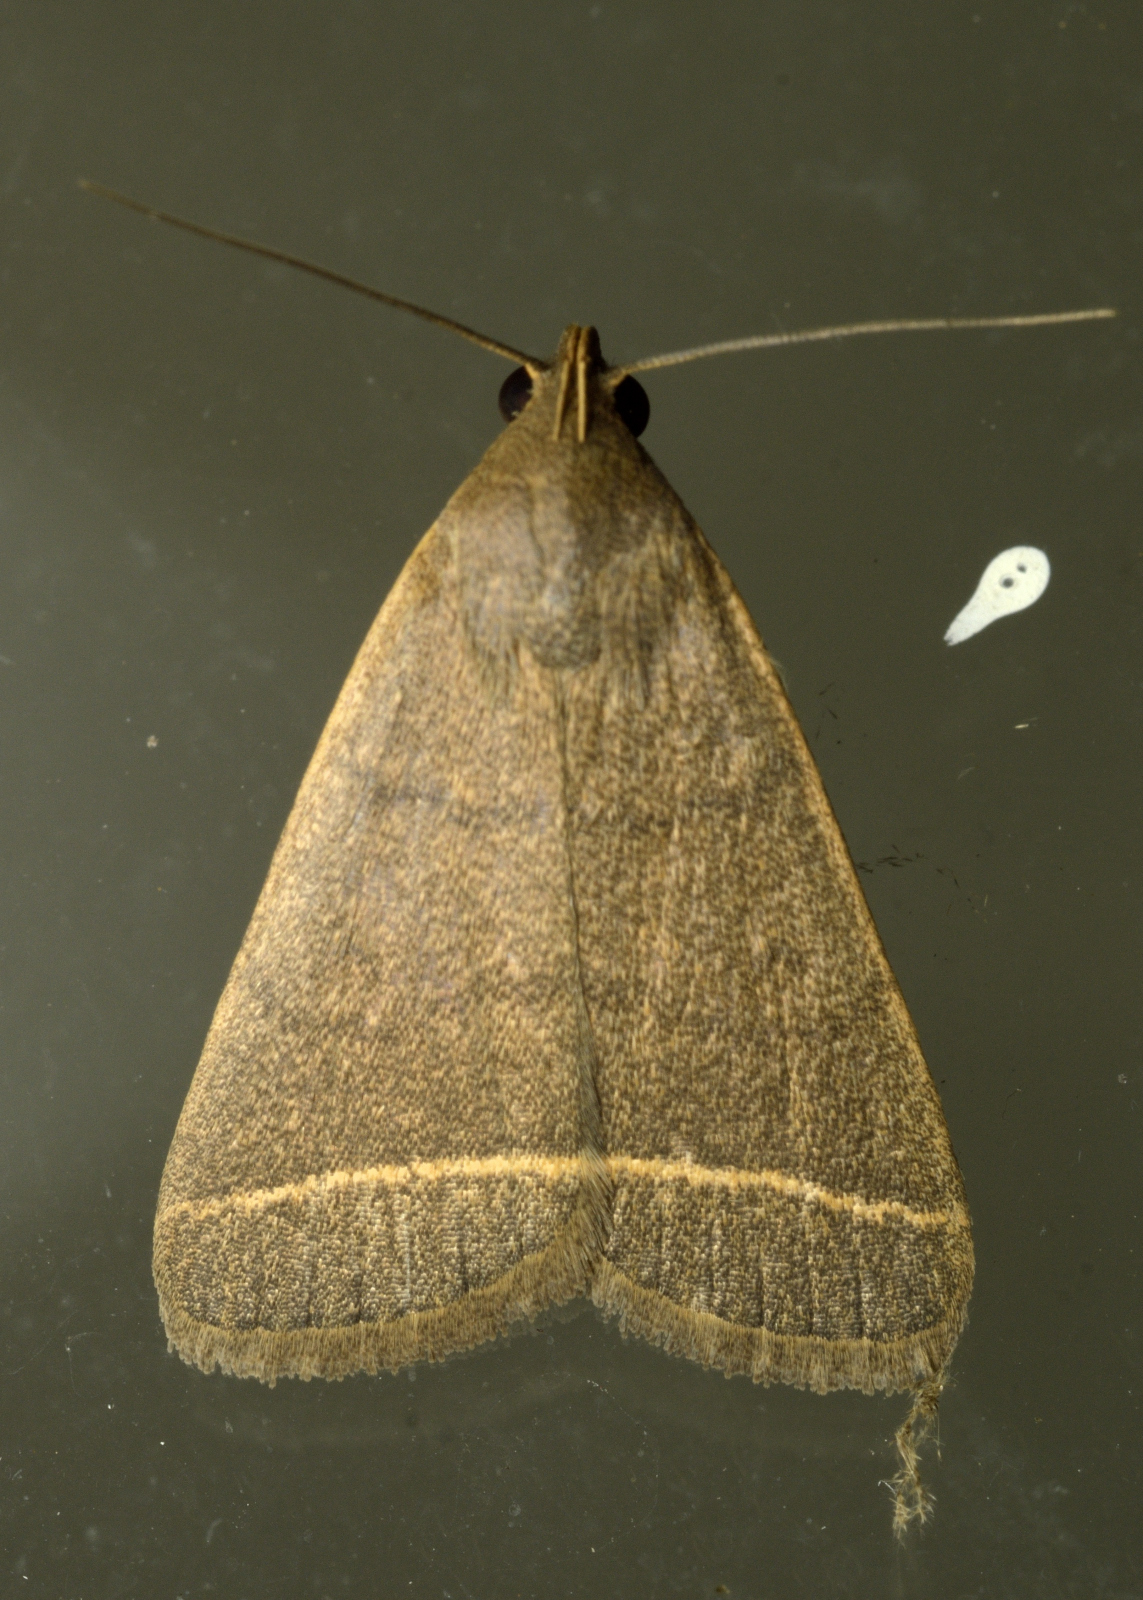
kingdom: Animalia
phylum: Arthropoda
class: Insecta
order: Lepidoptera
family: Erebidae
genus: Simplicia
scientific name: Simplicia cornicalis
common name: Tiki hut litter moth
